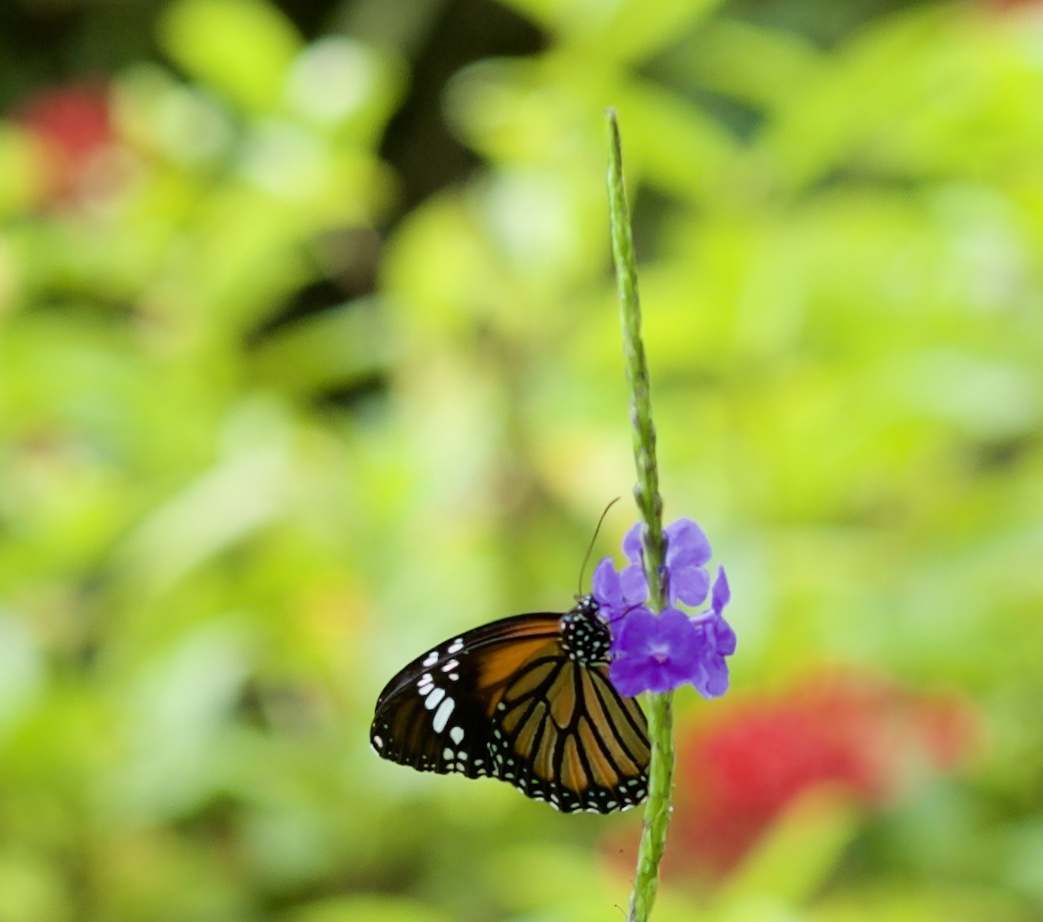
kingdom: Animalia
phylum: Arthropoda
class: Insecta
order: Lepidoptera
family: Nymphalidae
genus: Danaus
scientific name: Danaus genutia
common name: Common tiger butterfly
